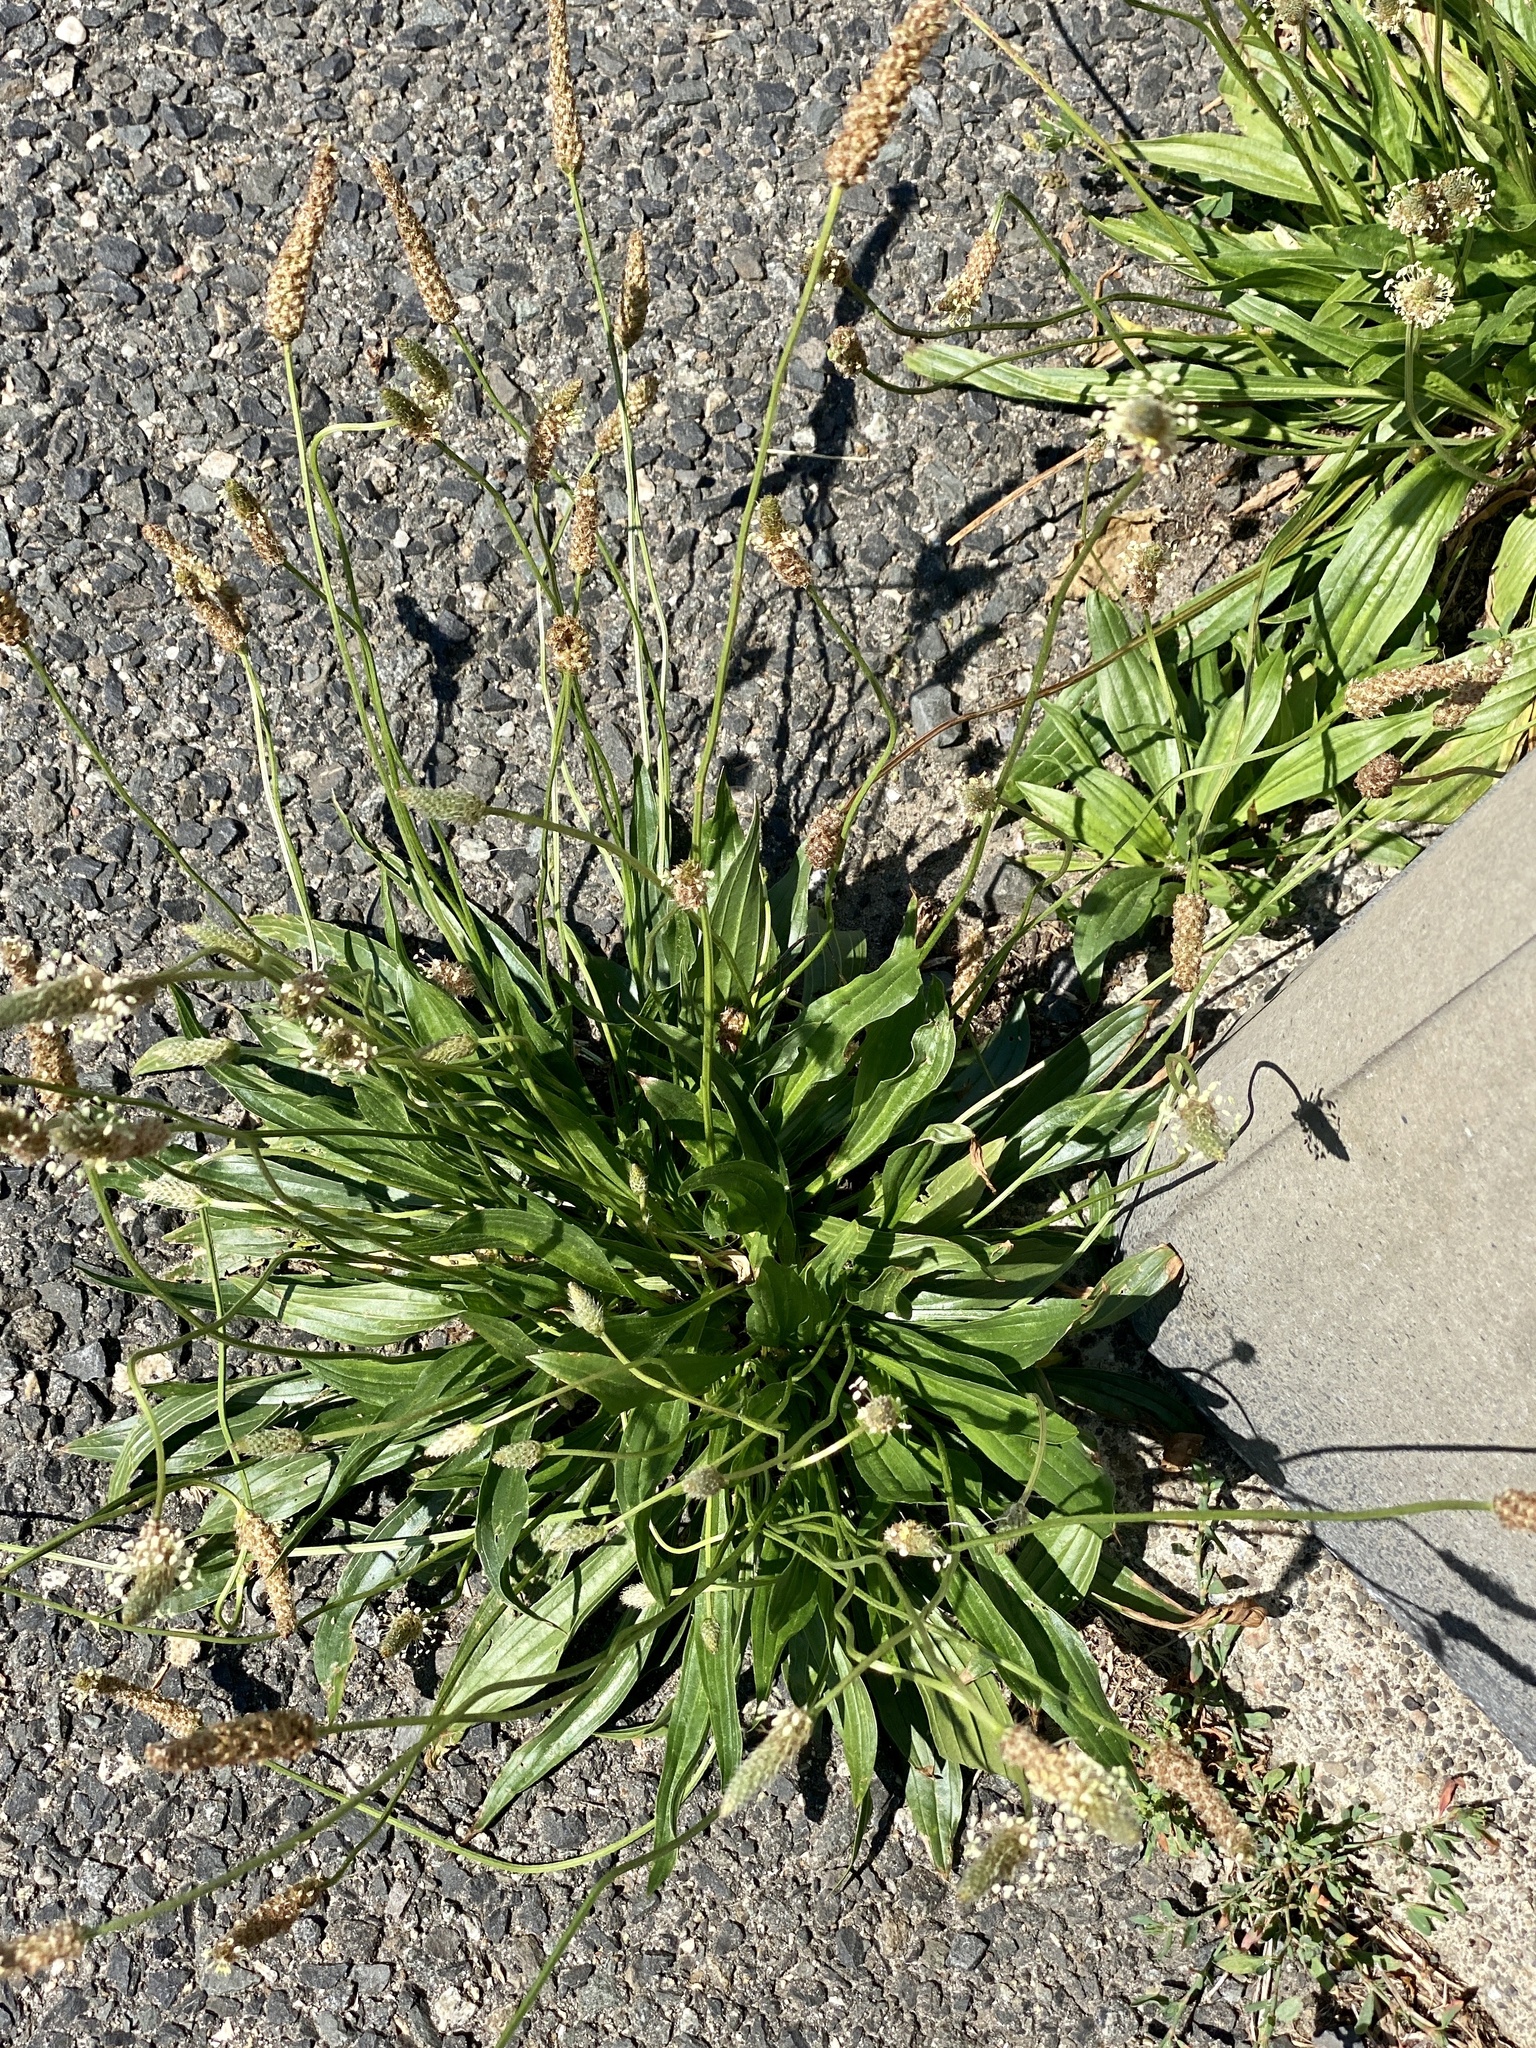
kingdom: Plantae
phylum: Tracheophyta
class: Magnoliopsida
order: Lamiales
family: Plantaginaceae
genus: Plantago
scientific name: Plantago lanceolata
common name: Ribwort plantain
